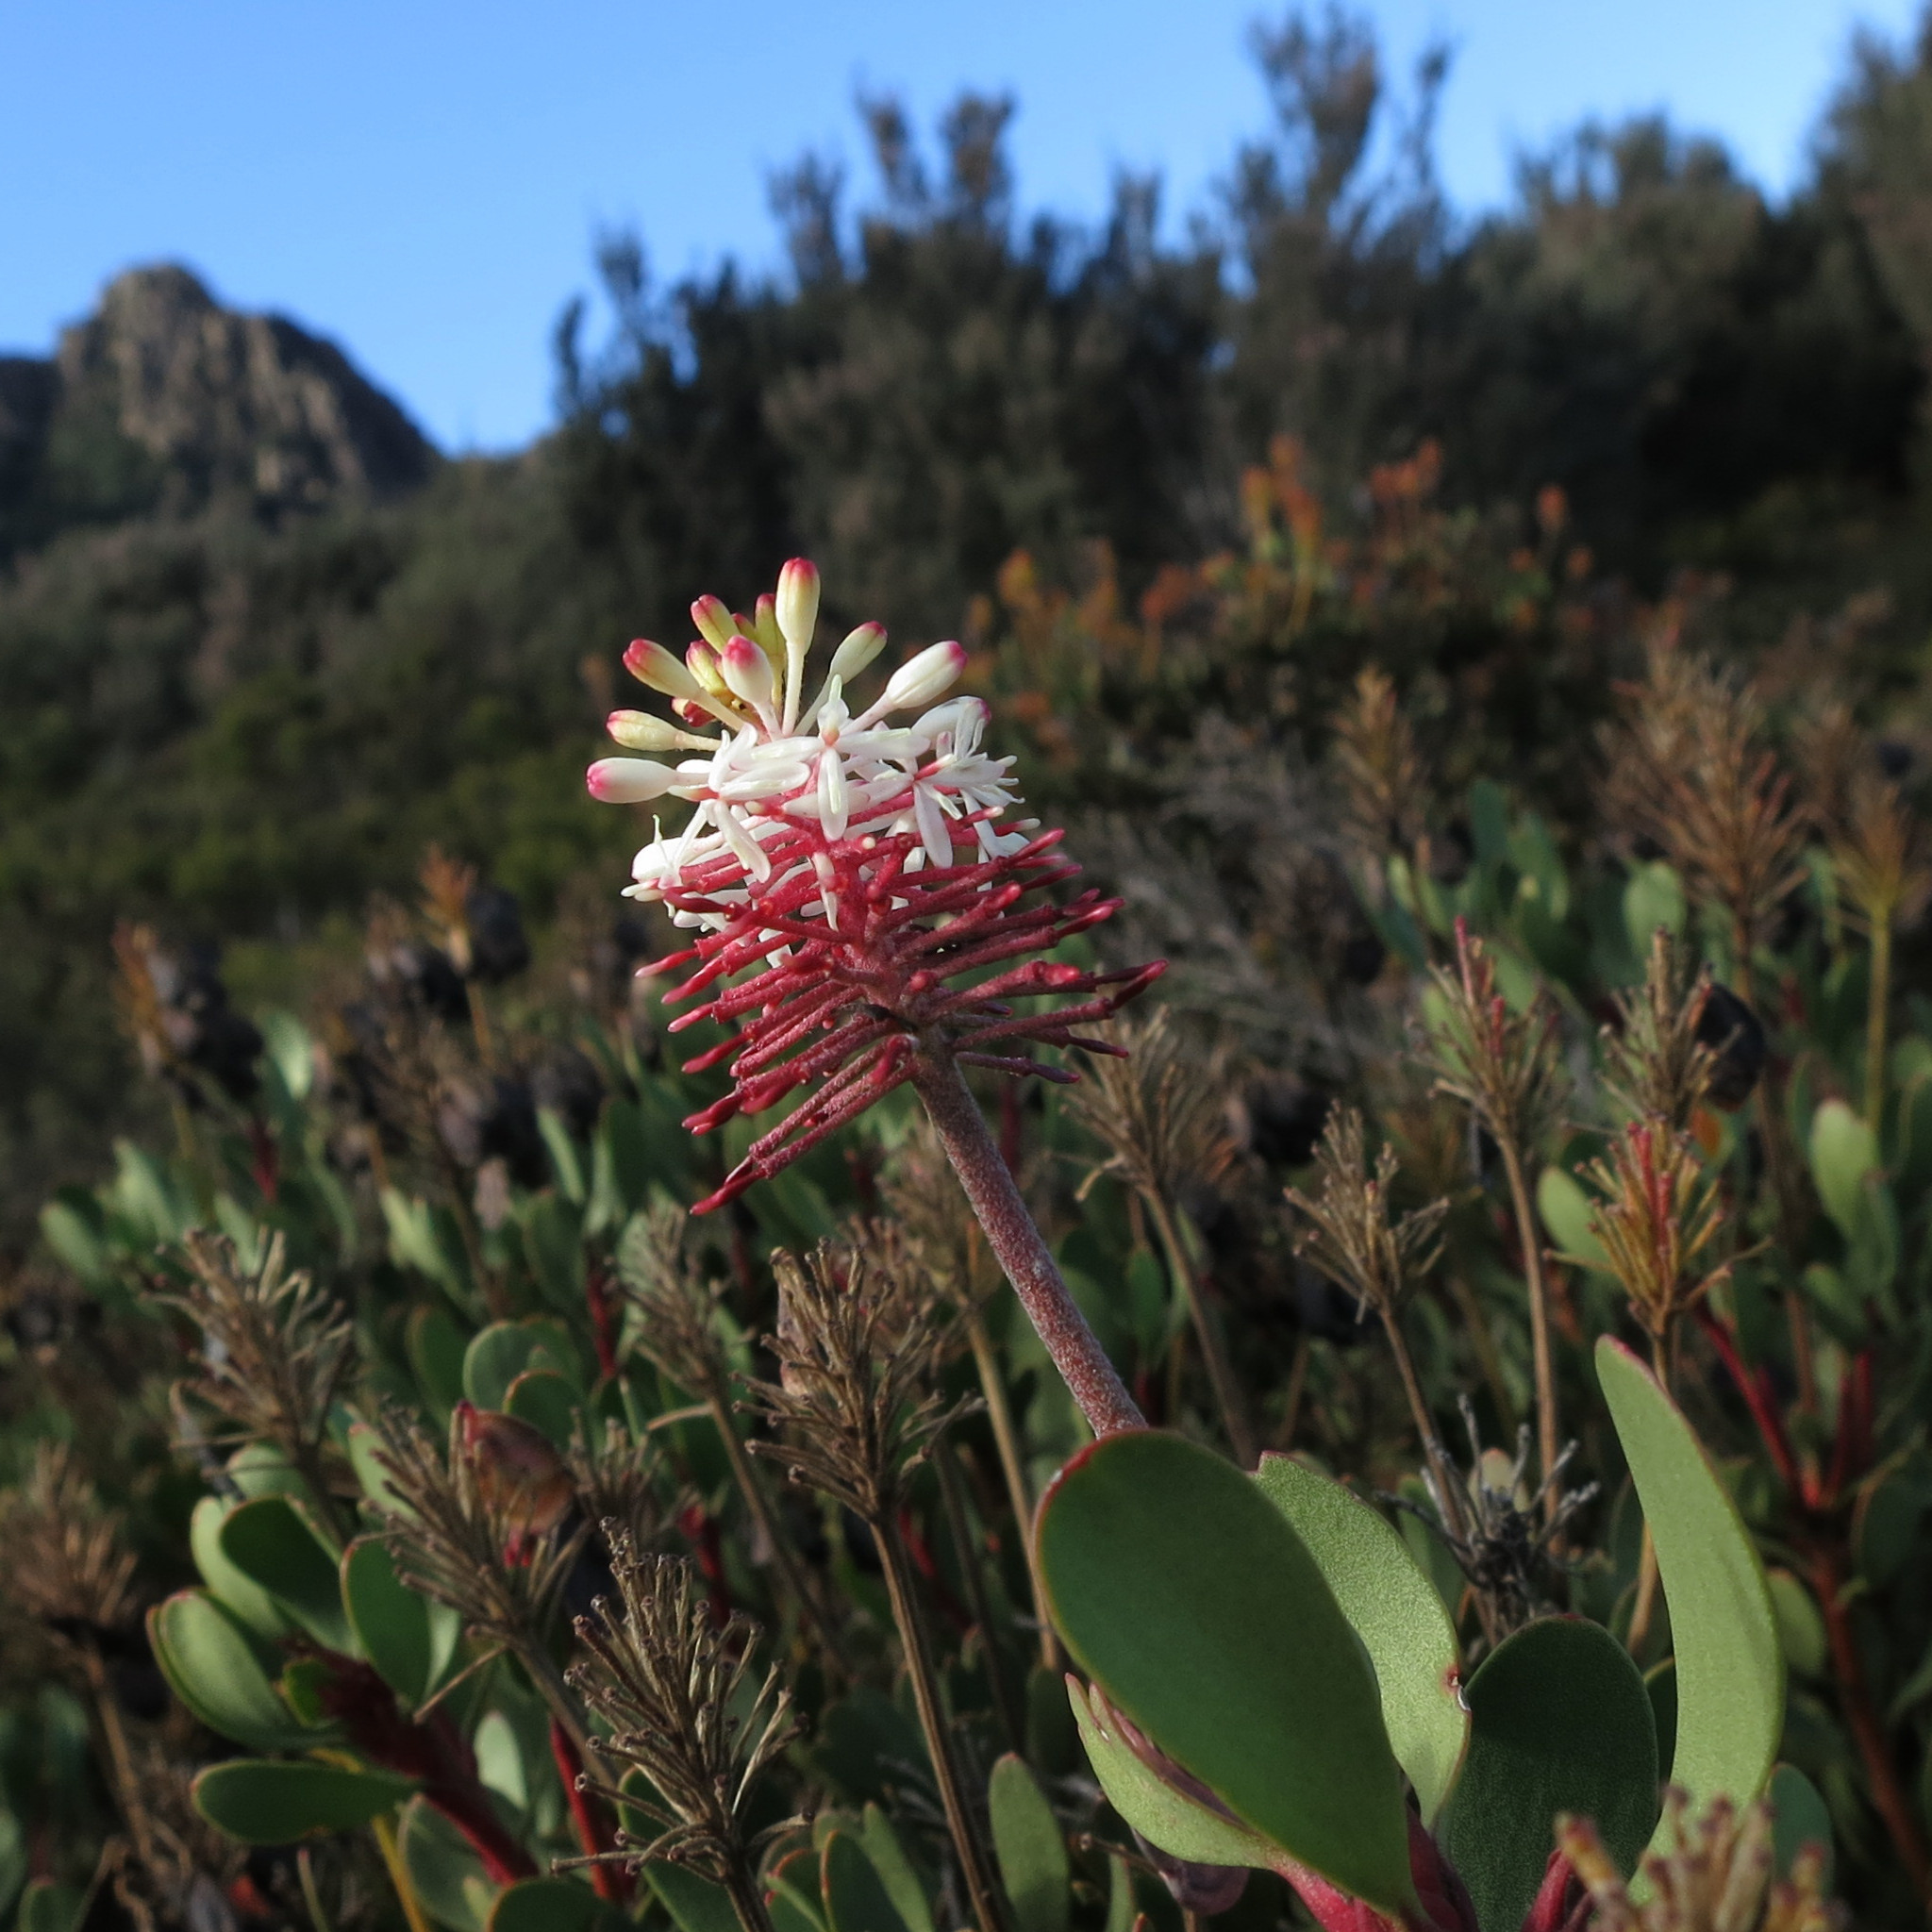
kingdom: Plantae
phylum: Tracheophyta
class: Magnoliopsida
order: Proteales
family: Proteaceae
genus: Bellendena
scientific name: Bellendena montana
